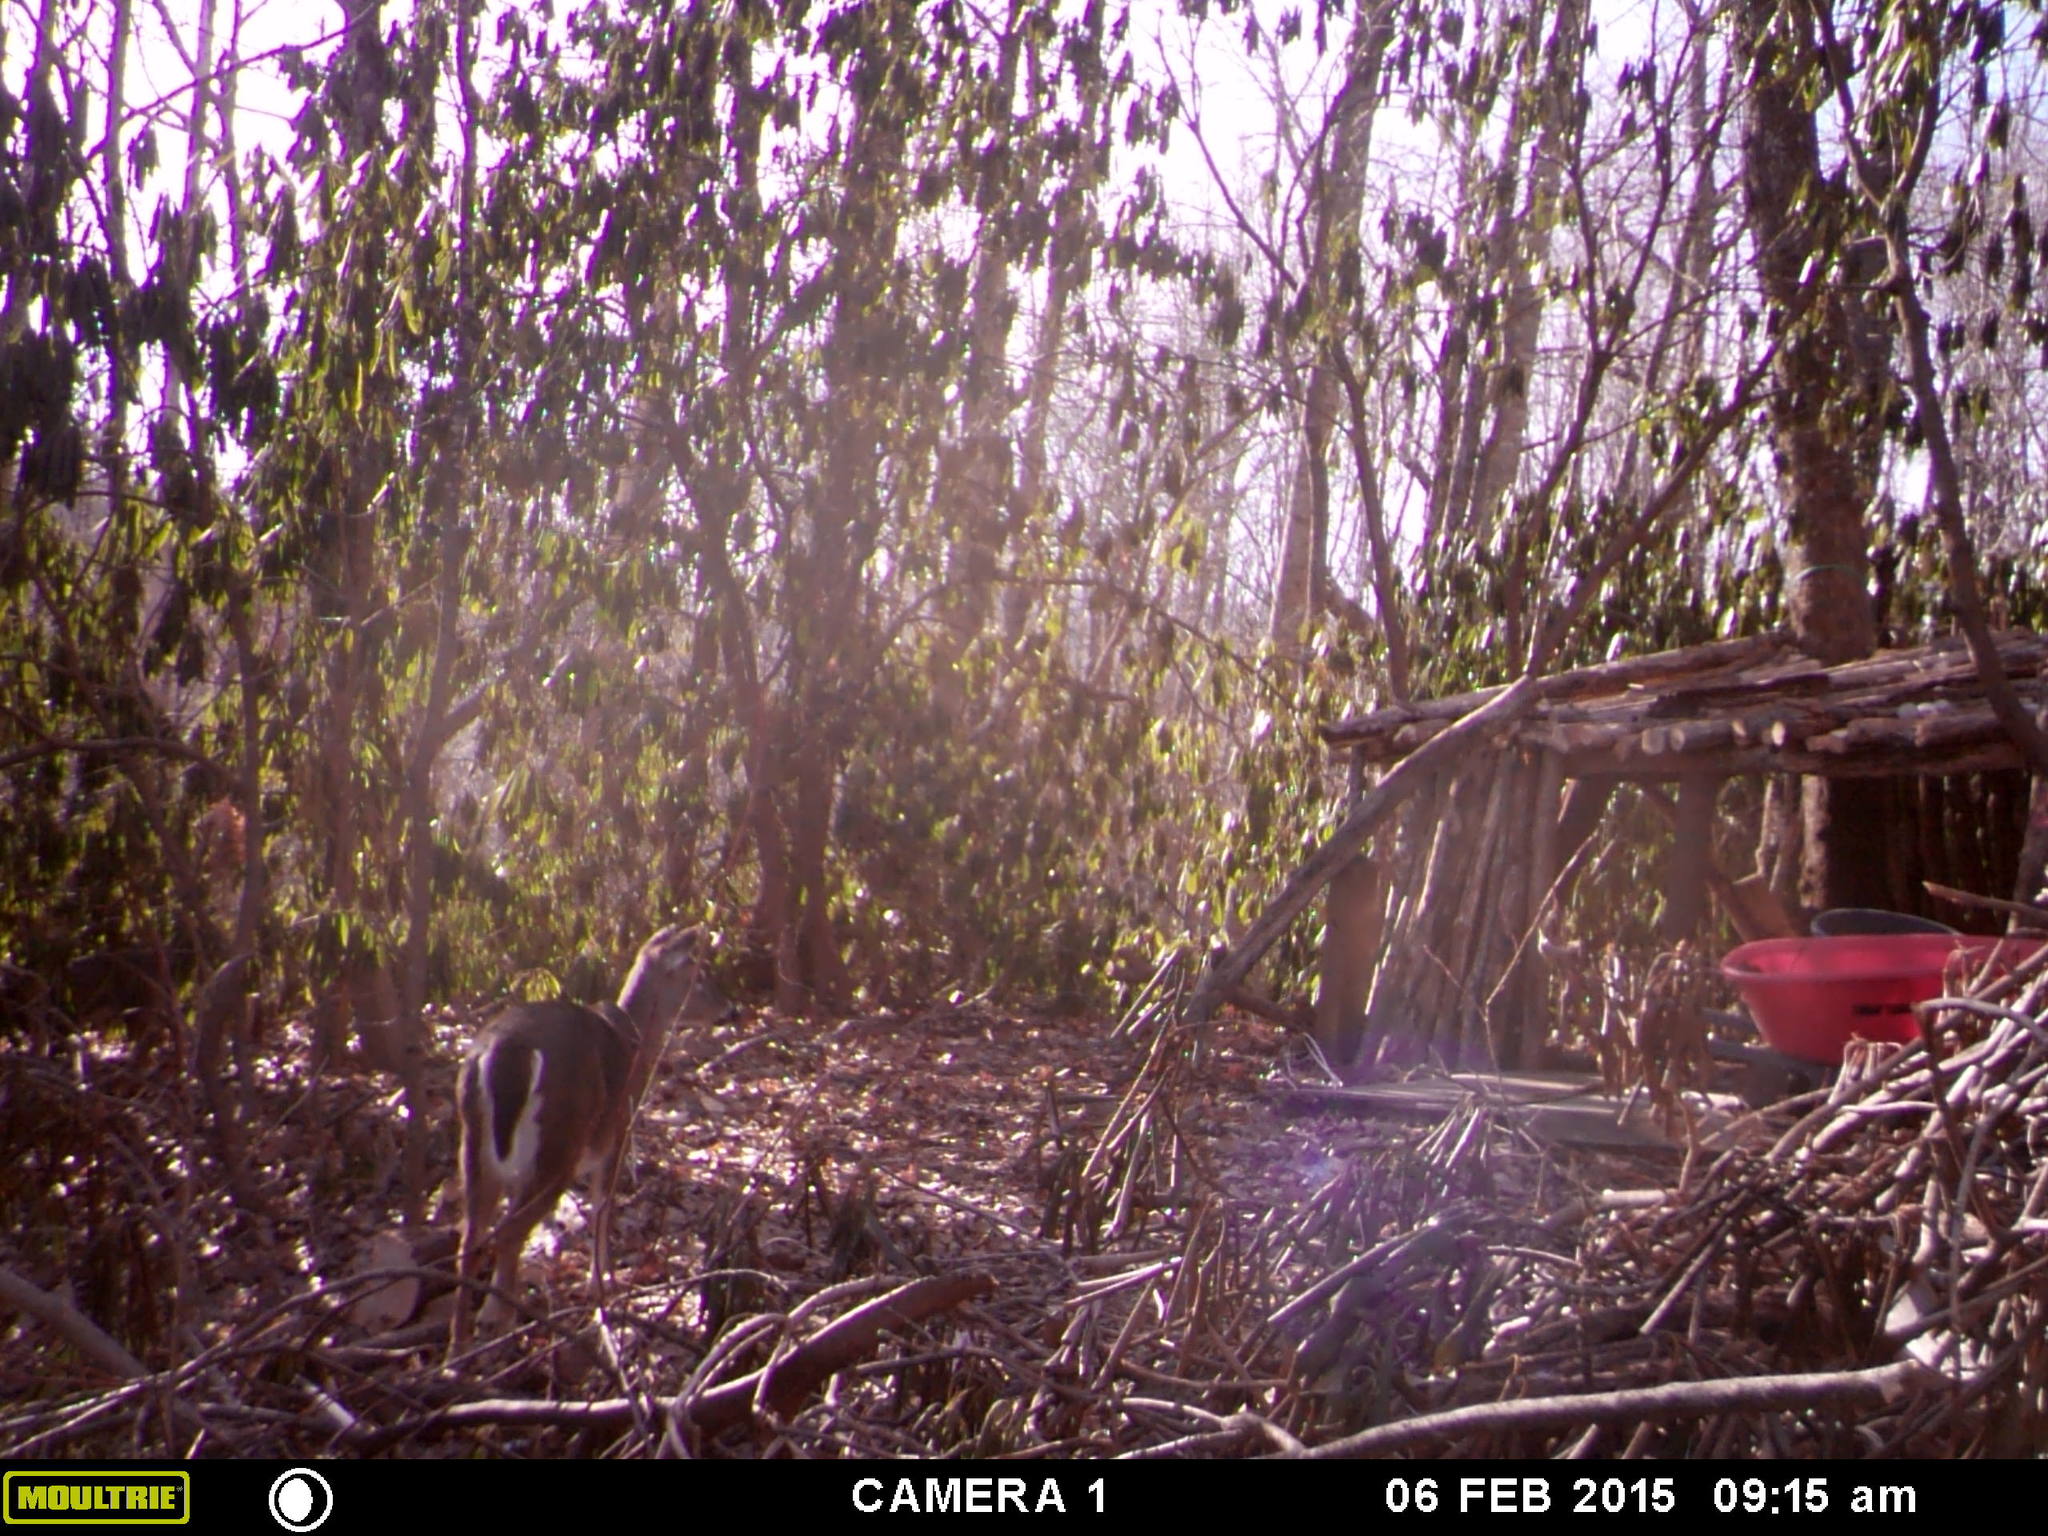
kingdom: Animalia
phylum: Chordata
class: Mammalia
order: Artiodactyla
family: Cervidae
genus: Odocoileus
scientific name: Odocoileus virginianus
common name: White-tailed deer
